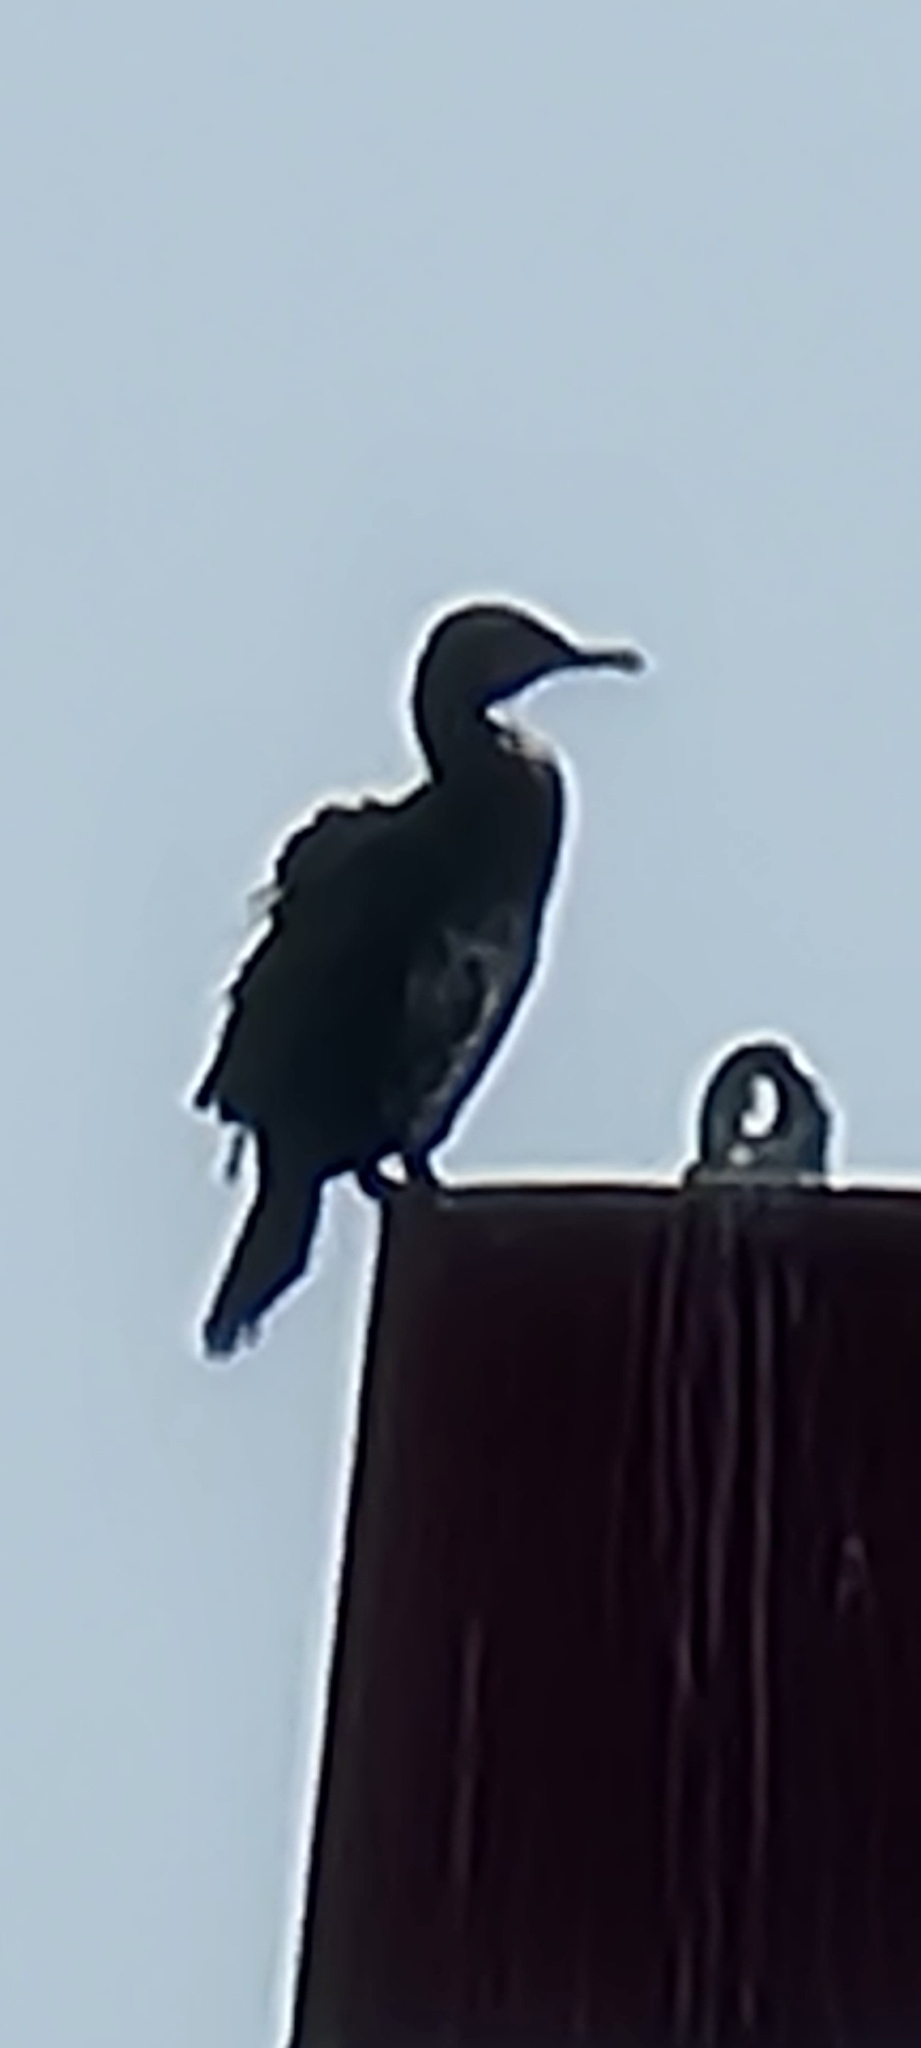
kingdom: Animalia
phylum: Chordata
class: Aves
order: Suliformes
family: Phalacrocoracidae
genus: Phalacrocorax
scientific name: Phalacrocorax carbo
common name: Great cormorant
